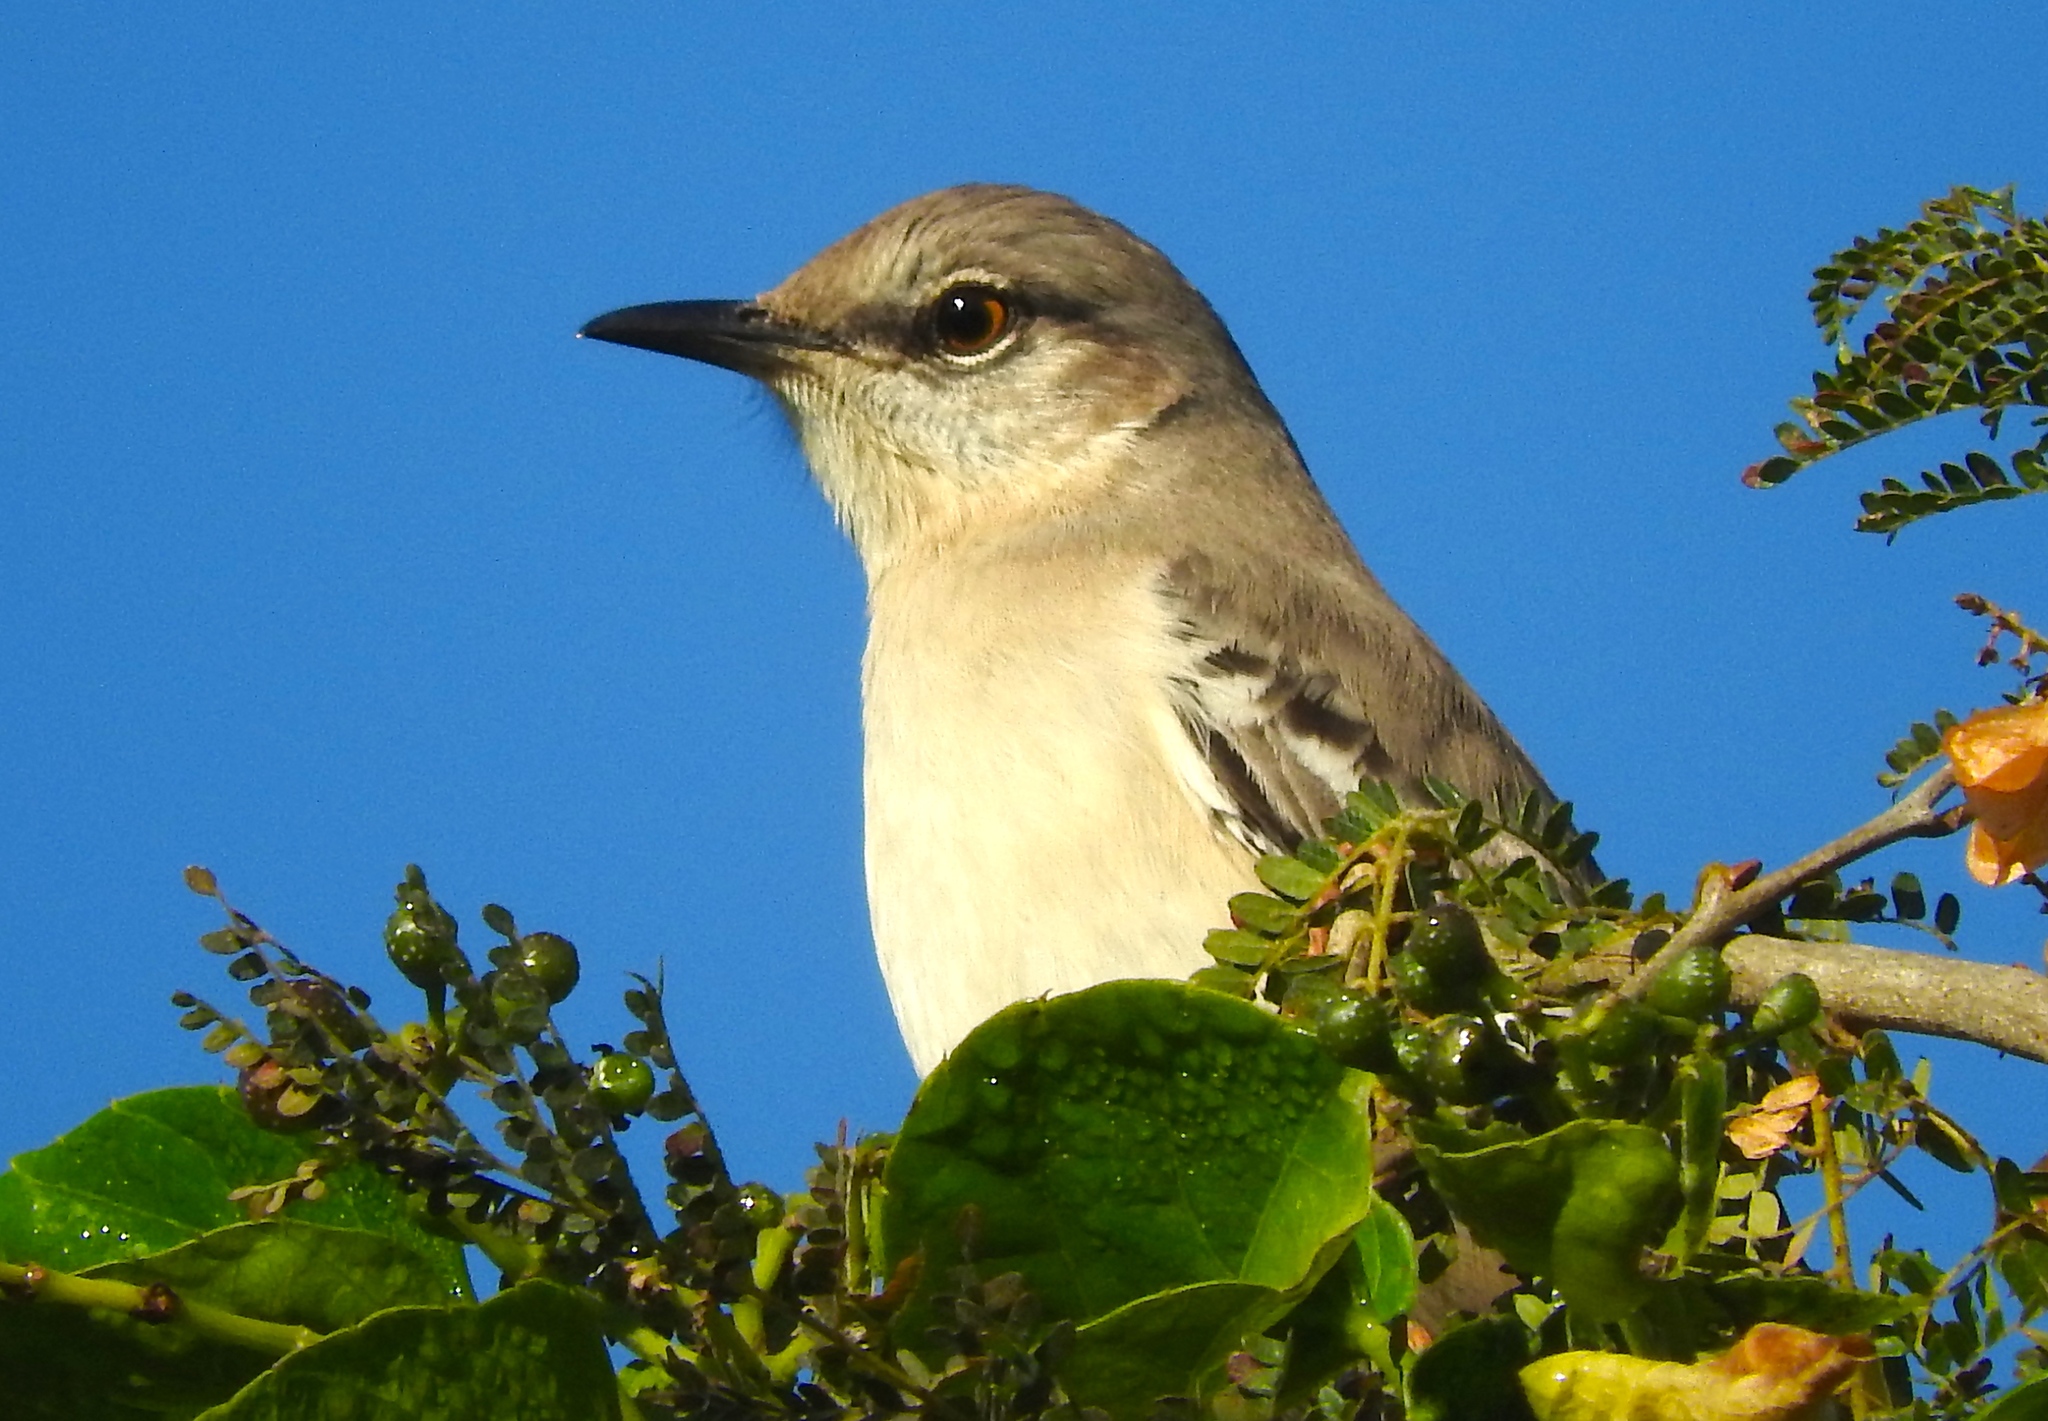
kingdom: Animalia
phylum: Chordata
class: Aves
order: Passeriformes
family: Mimidae
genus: Mimus
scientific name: Mimus polyglottos
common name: Northern mockingbird
